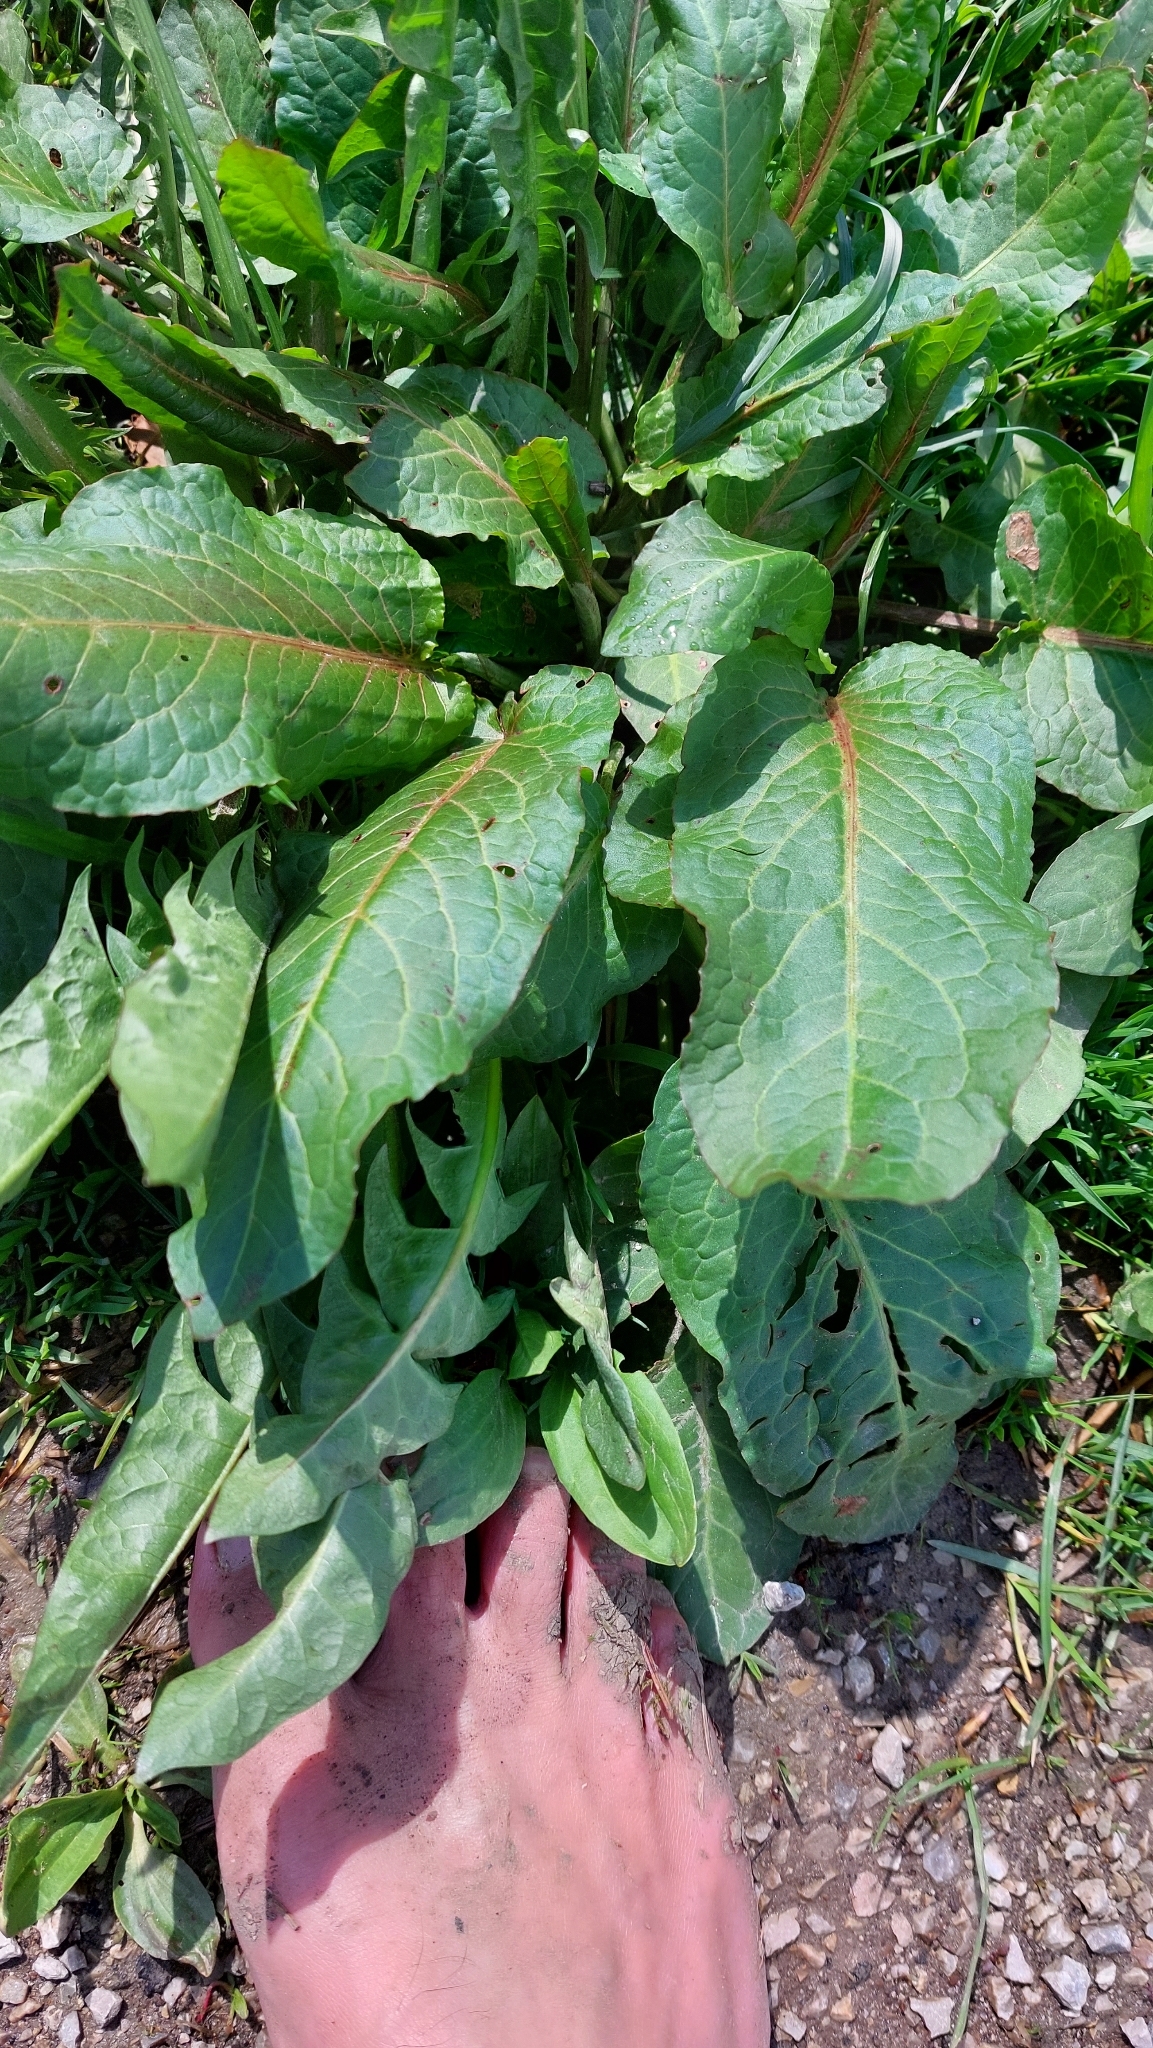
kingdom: Plantae
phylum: Tracheophyta
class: Magnoliopsida
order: Caryophyllales
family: Polygonaceae
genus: Rumex
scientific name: Rumex obtusifolius
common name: Bitter dock
